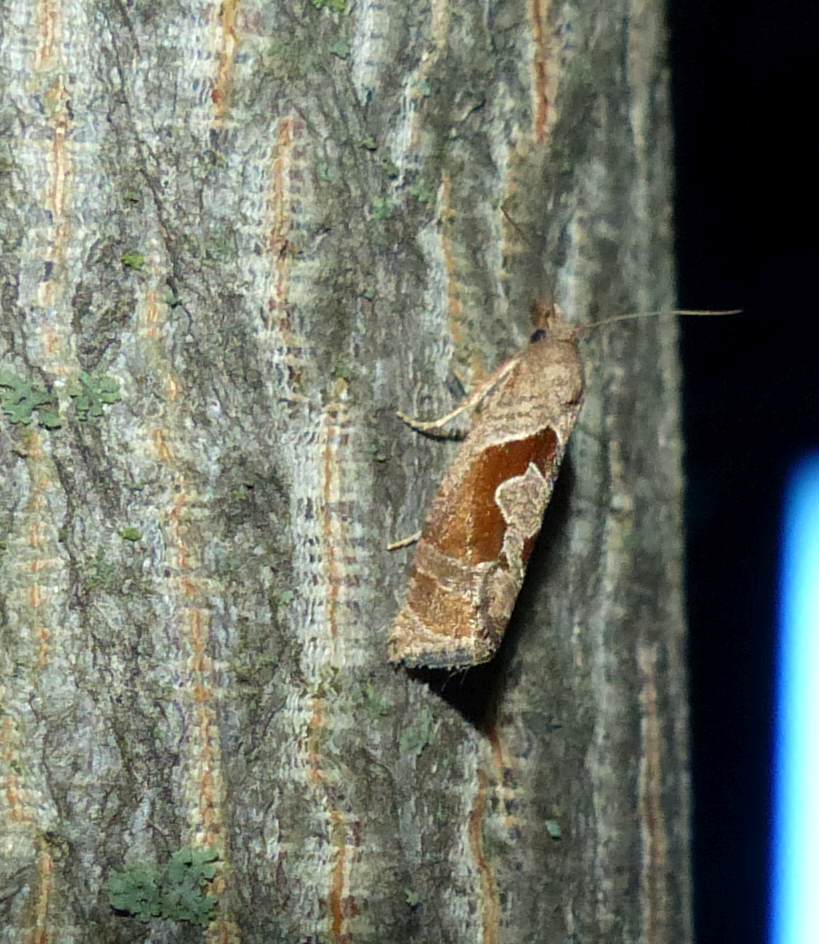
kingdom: Animalia
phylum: Arthropoda
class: Insecta
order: Lepidoptera
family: Tortricidae
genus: Pelochrista
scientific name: Pelochrista similiana
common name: Similar eucosma
